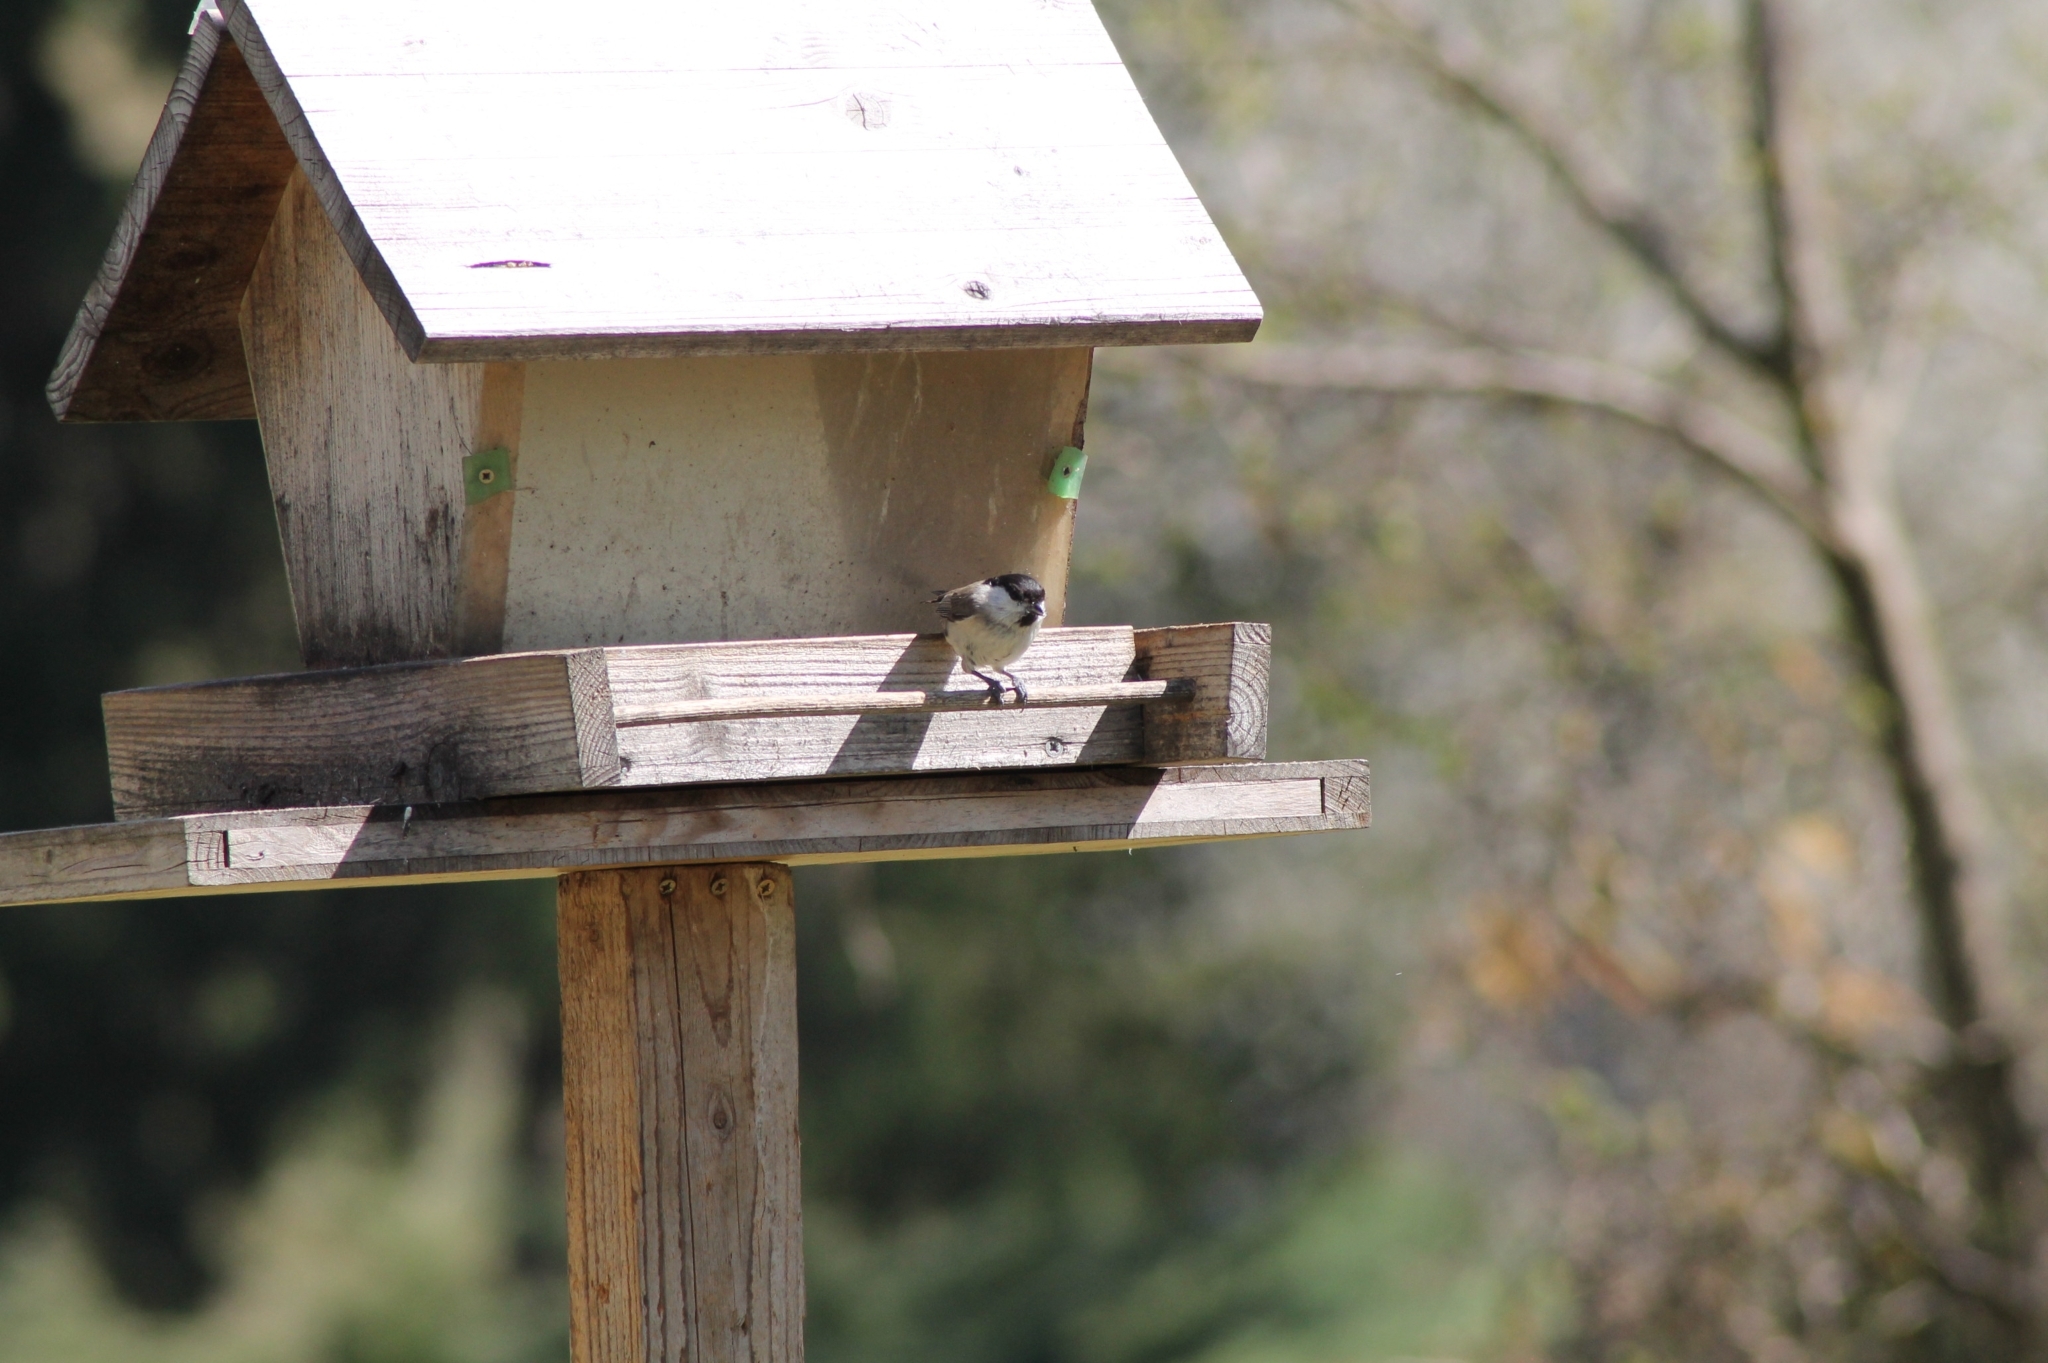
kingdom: Animalia
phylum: Chordata
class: Aves
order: Passeriformes
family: Paridae
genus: Poecile
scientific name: Poecile palustris
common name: Marsh tit
